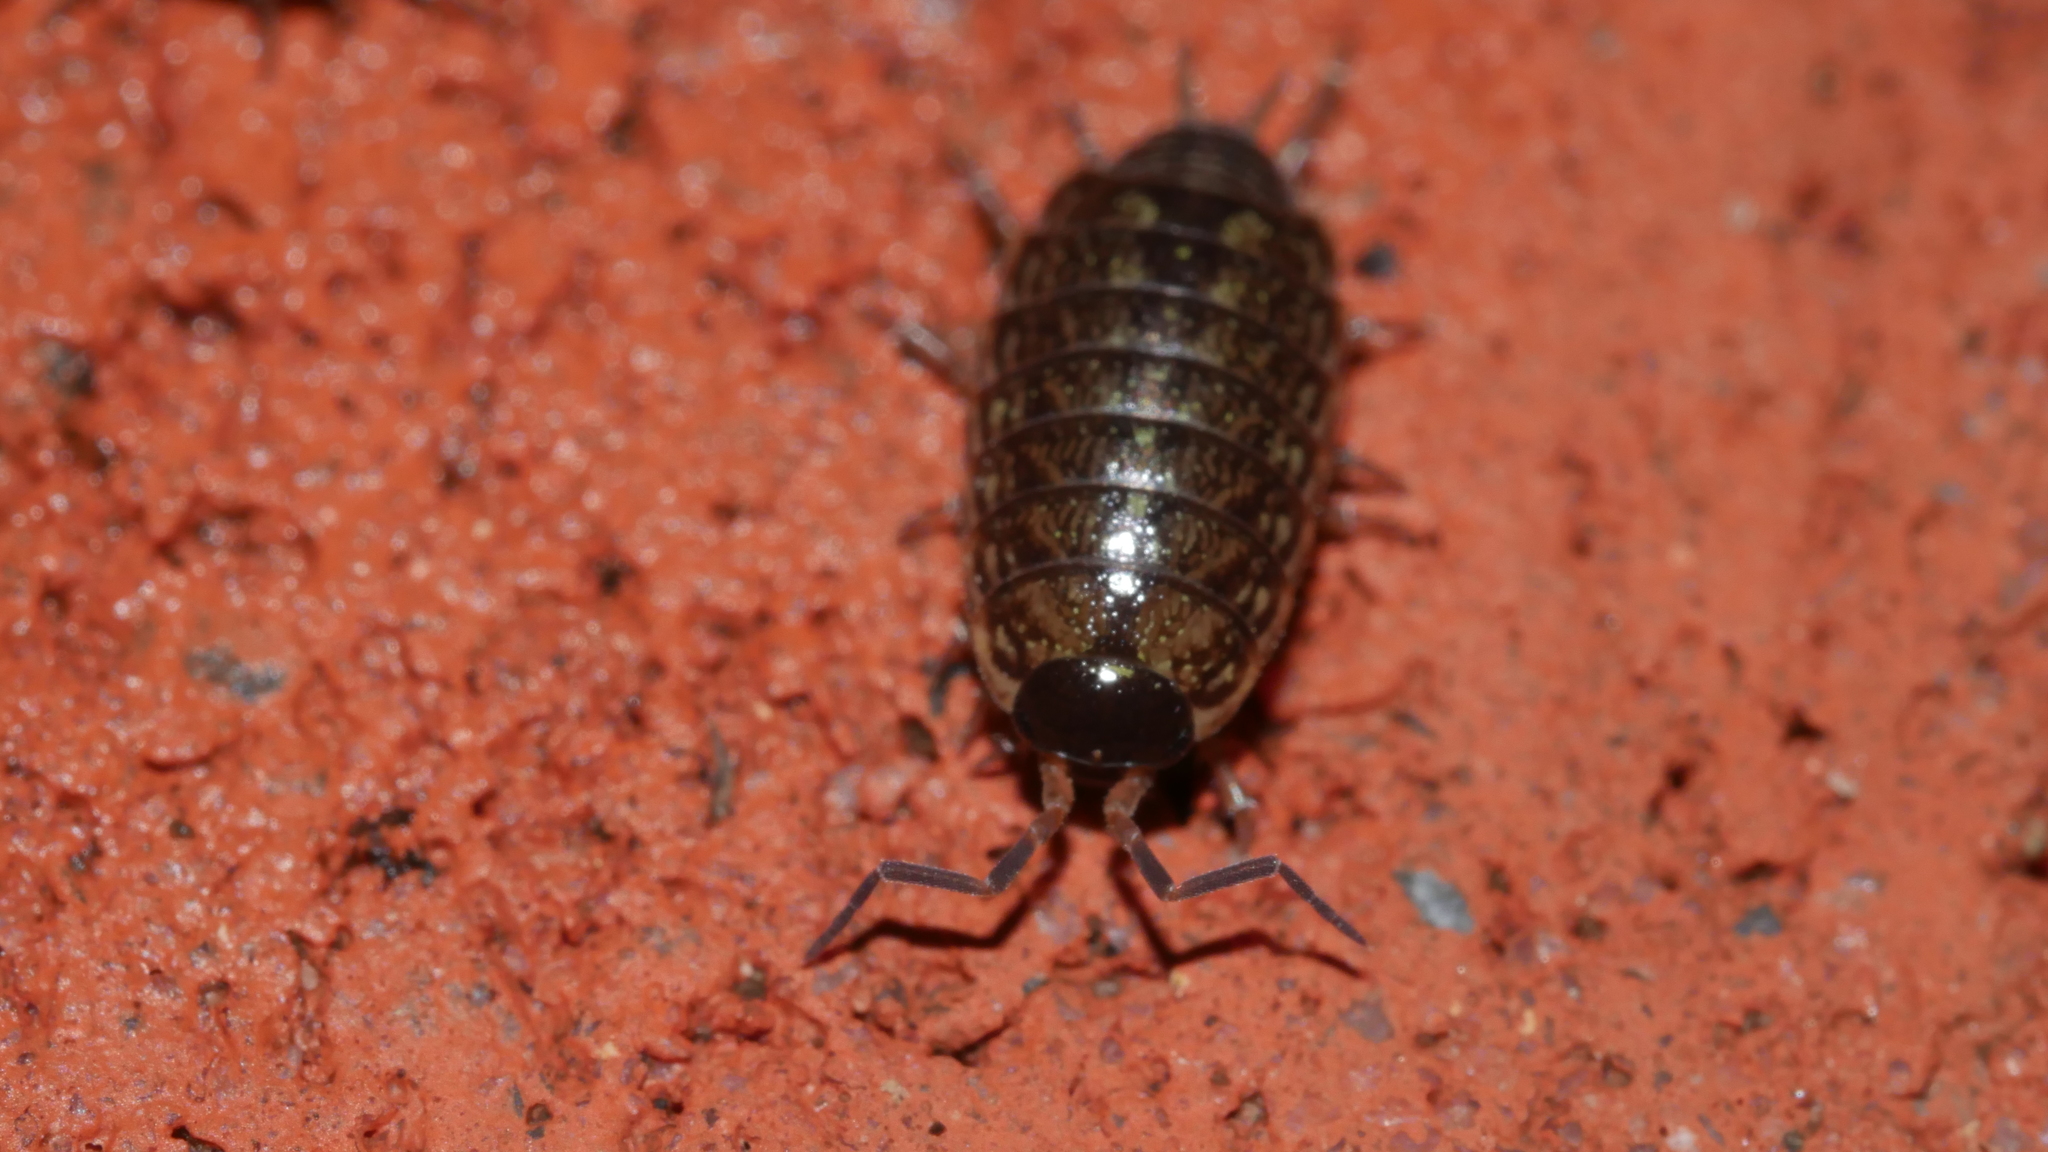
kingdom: Animalia
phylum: Arthropoda
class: Malacostraca
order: Isopoda
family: Philosciidae
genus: Philoscia
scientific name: Philoscia muscorum
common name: Common striped woodlouse
